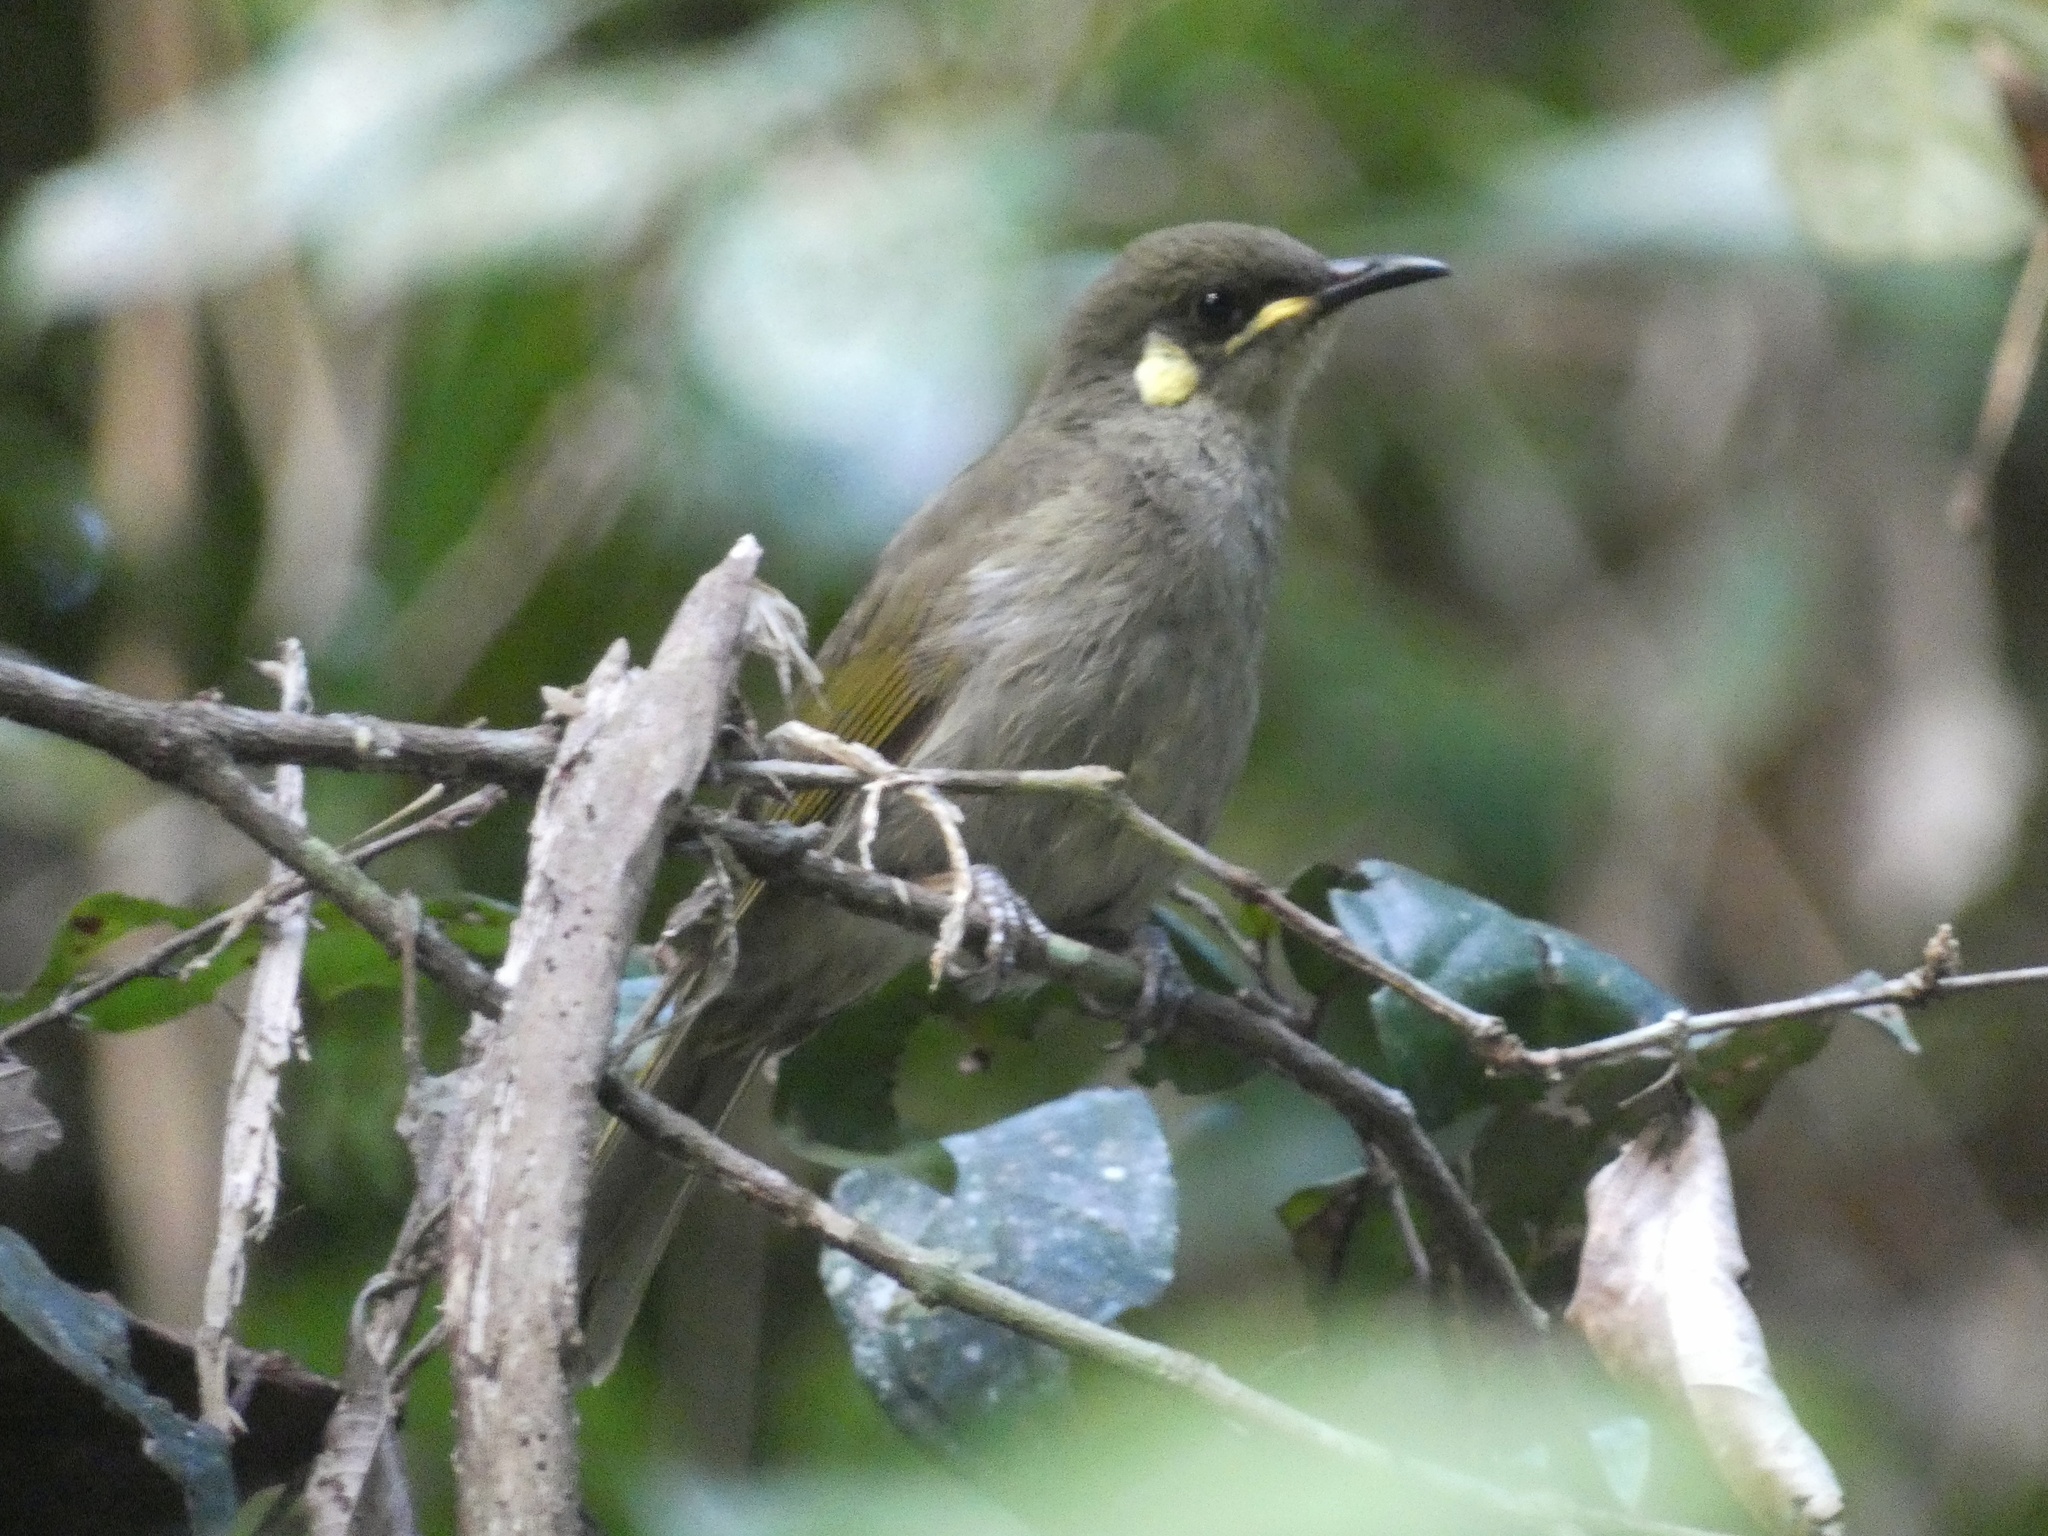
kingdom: Animalia
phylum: Chordata
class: Aves
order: Passeriformes
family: Meliphagidae
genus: Meliphaga
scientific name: Meliphaga notata
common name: Yellow-spotted honeyeater
